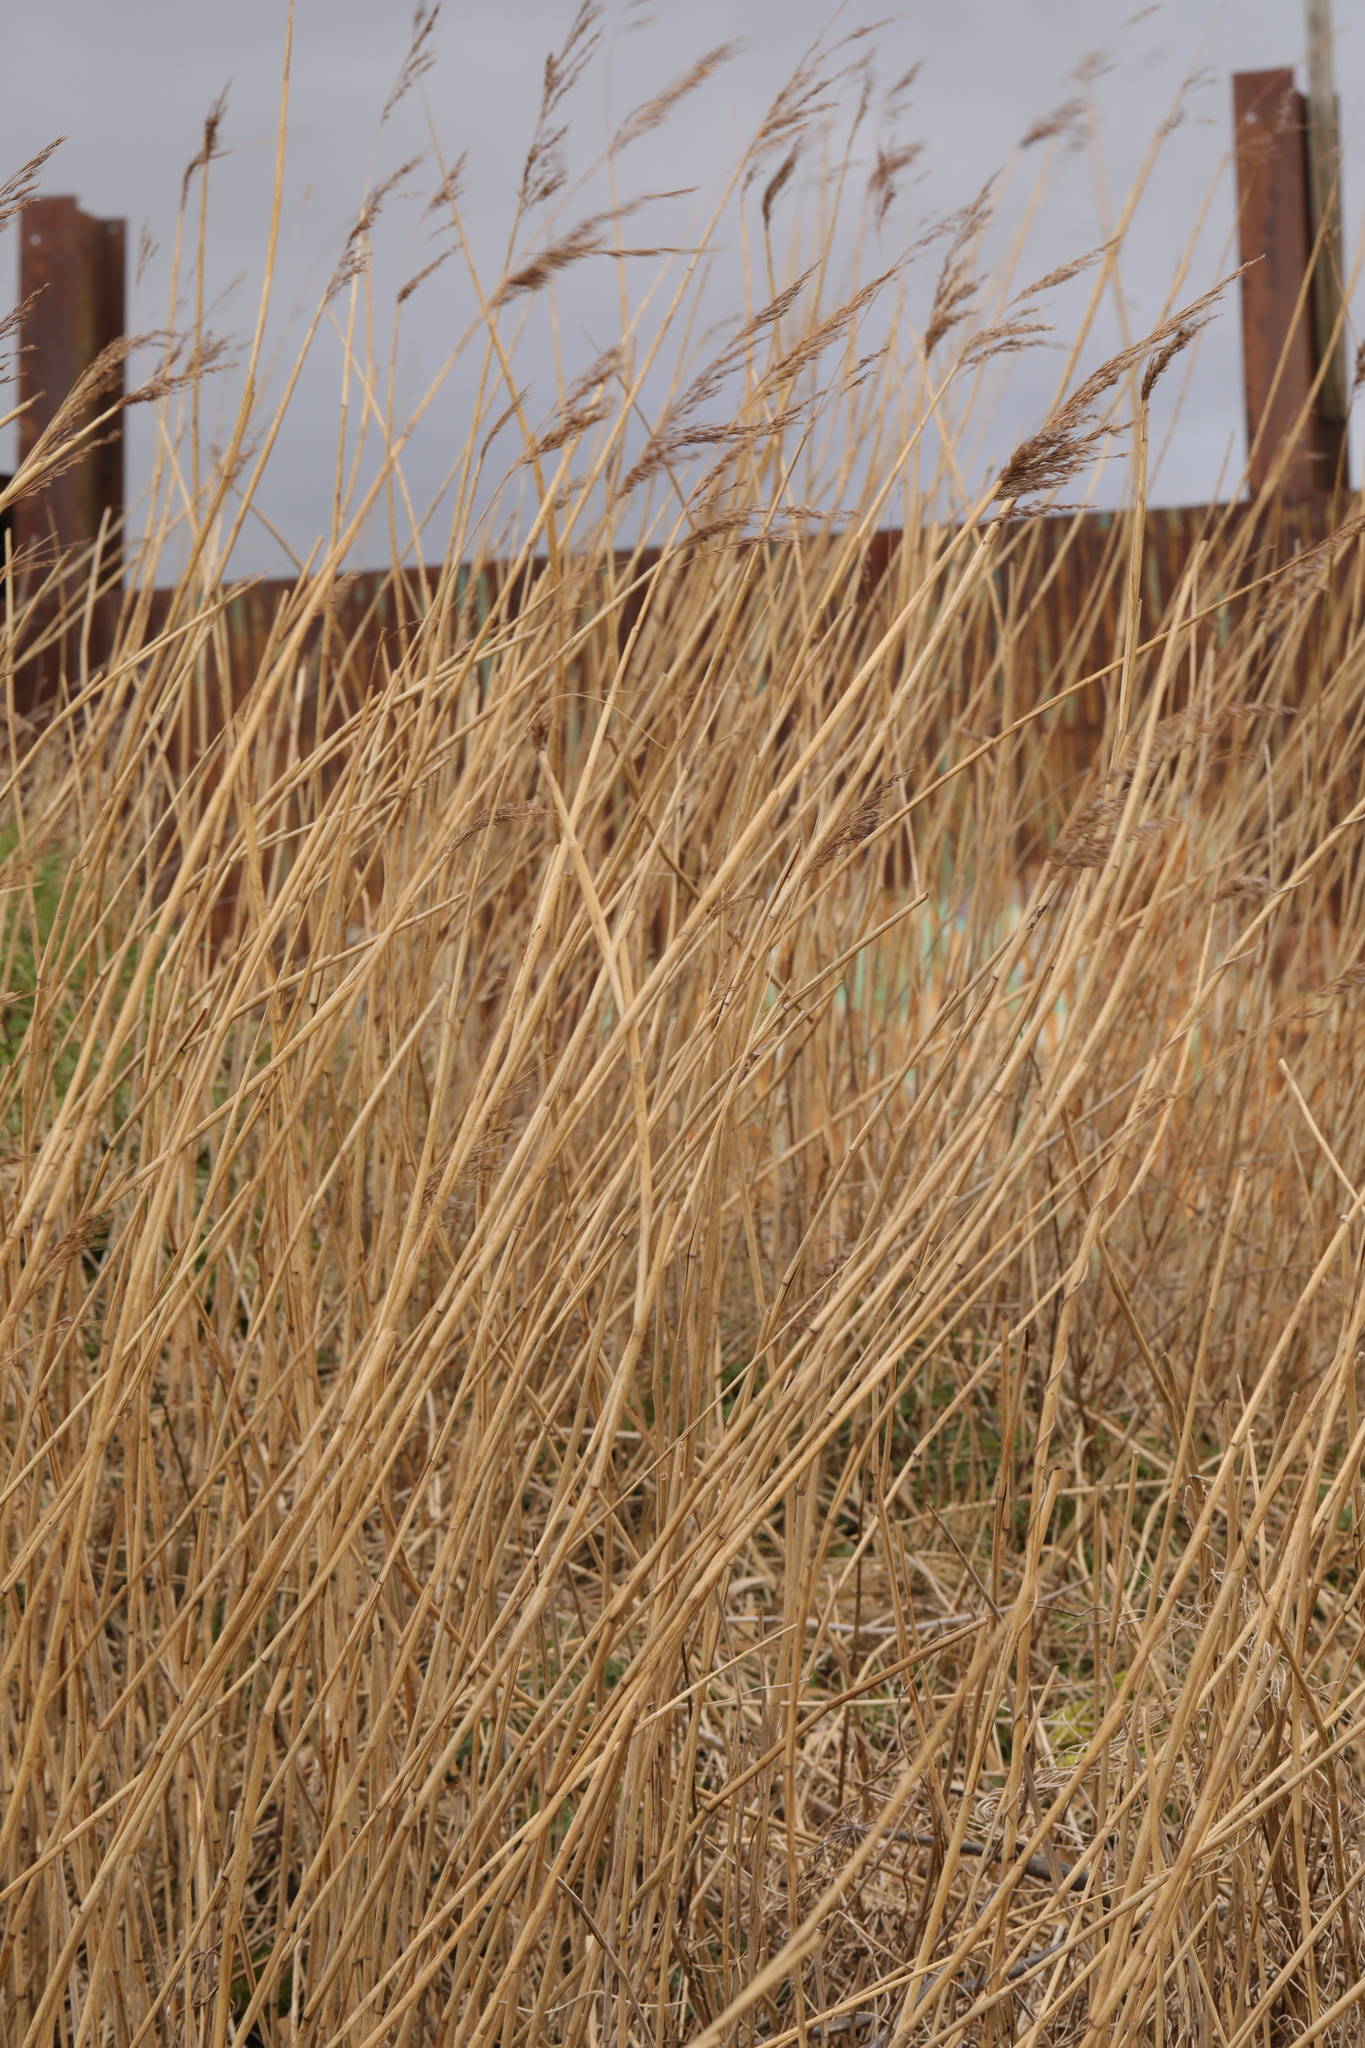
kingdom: Plantae
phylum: Tracheophyta
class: Liliopsida
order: Poales
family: Poaceae
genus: Phragmites
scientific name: Phragmites australis
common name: Common reed
